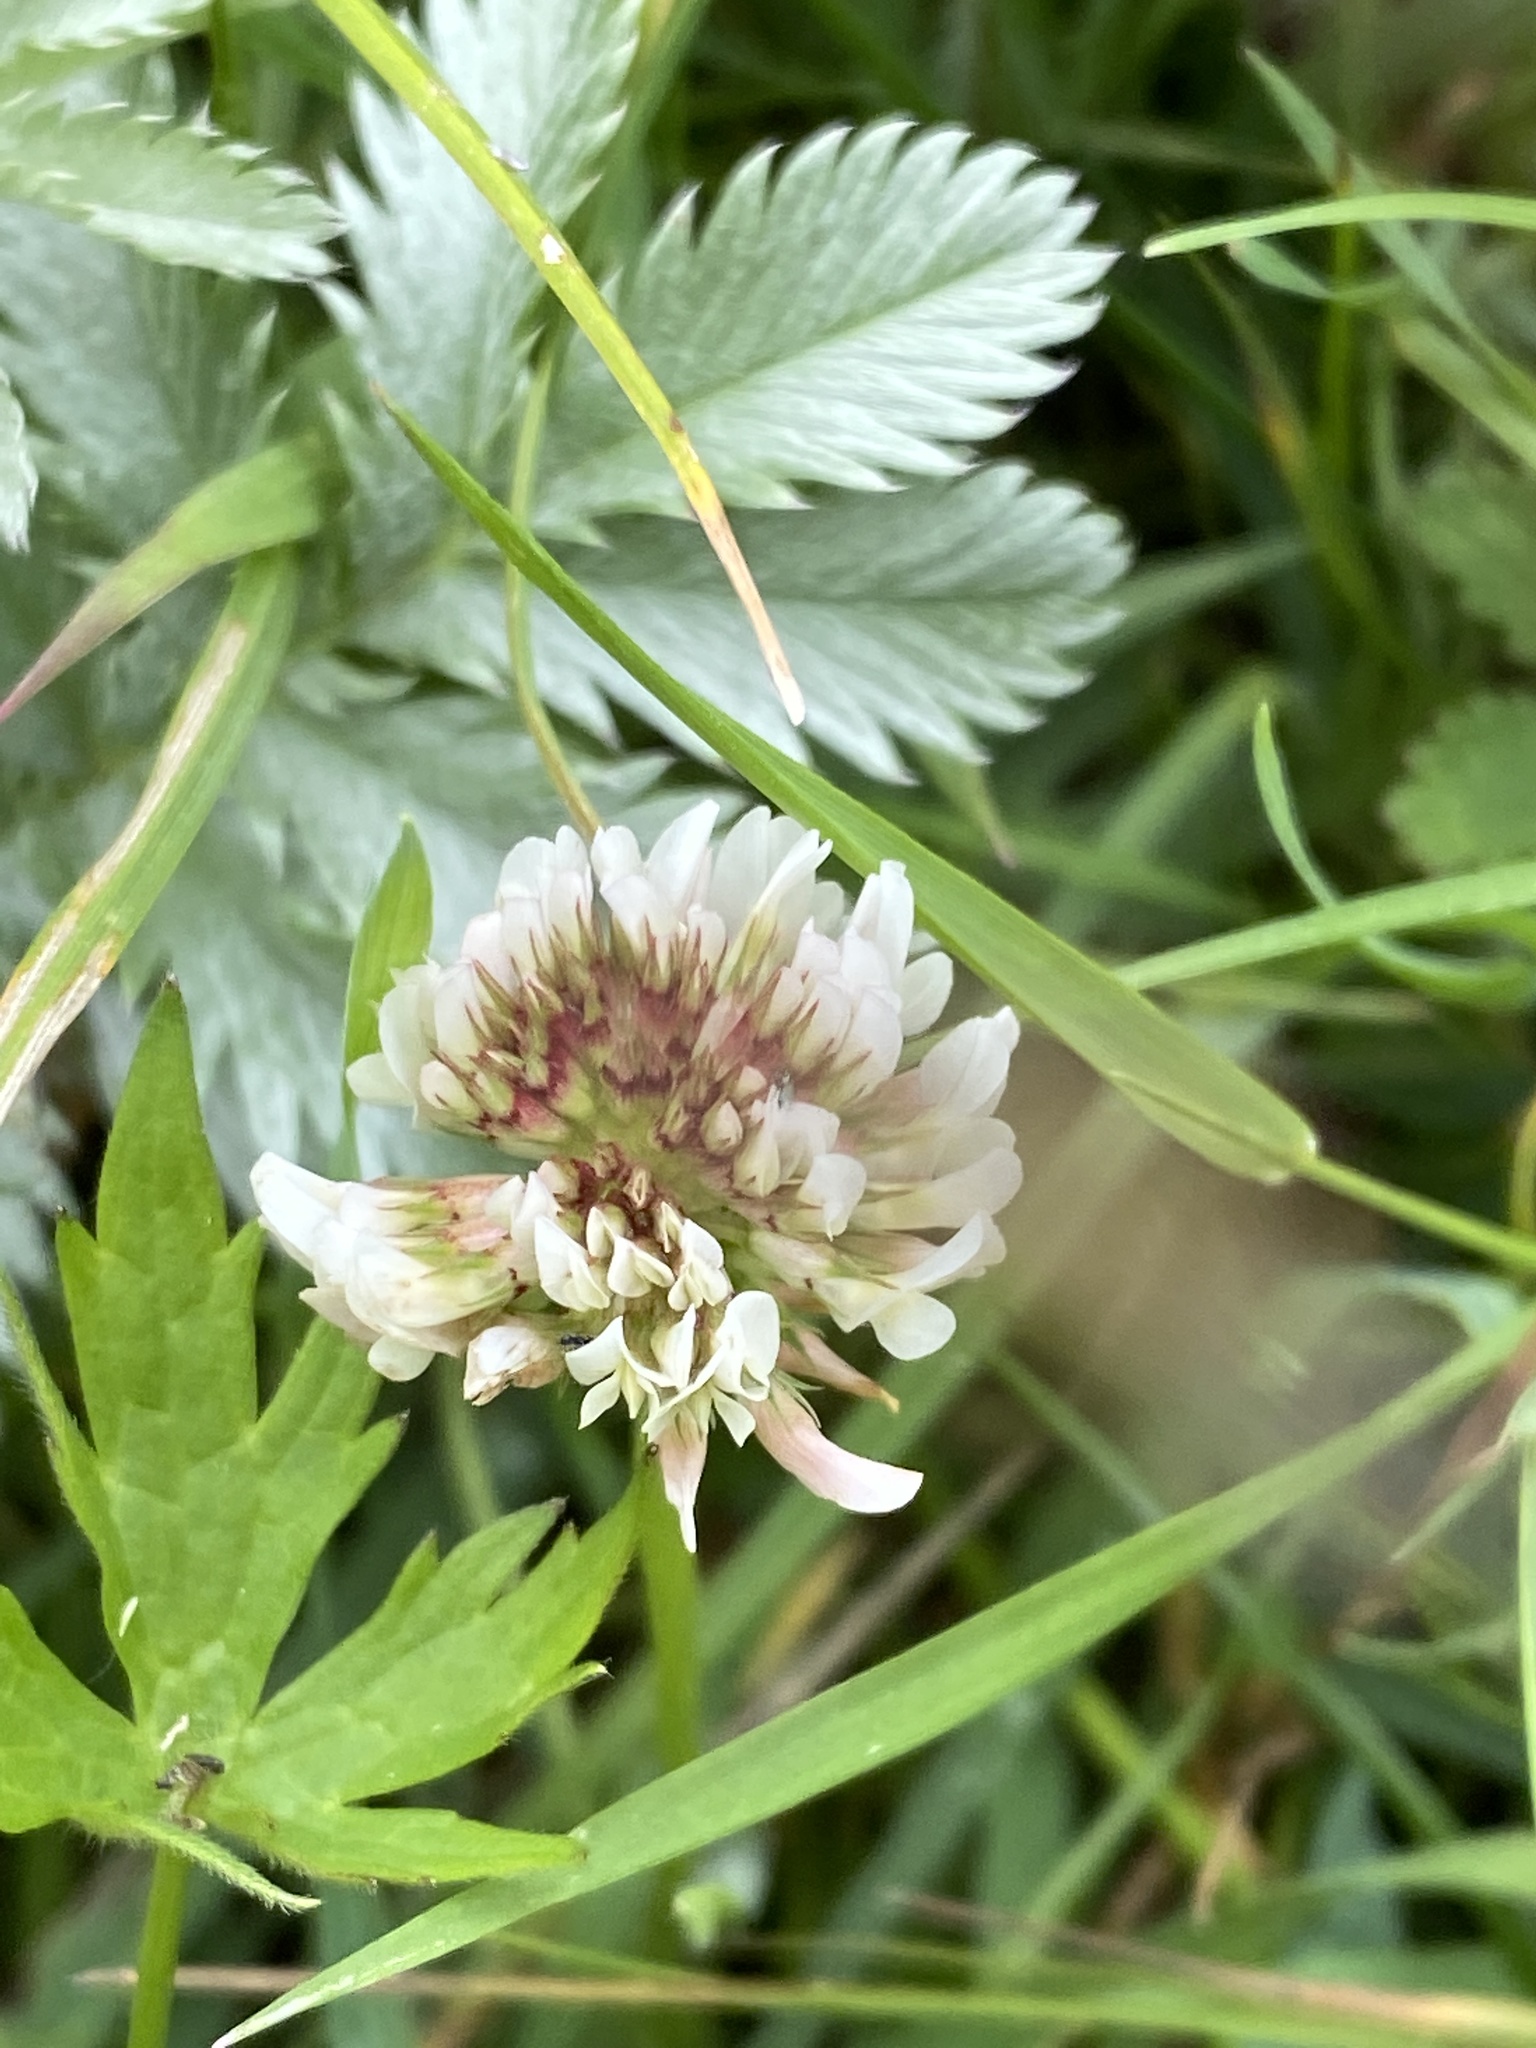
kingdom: Plantae
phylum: Tracheophyta
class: Magnoliopsida
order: Fabales
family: Fabaceae
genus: Trifolium
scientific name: Trifolium repens
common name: White clover
